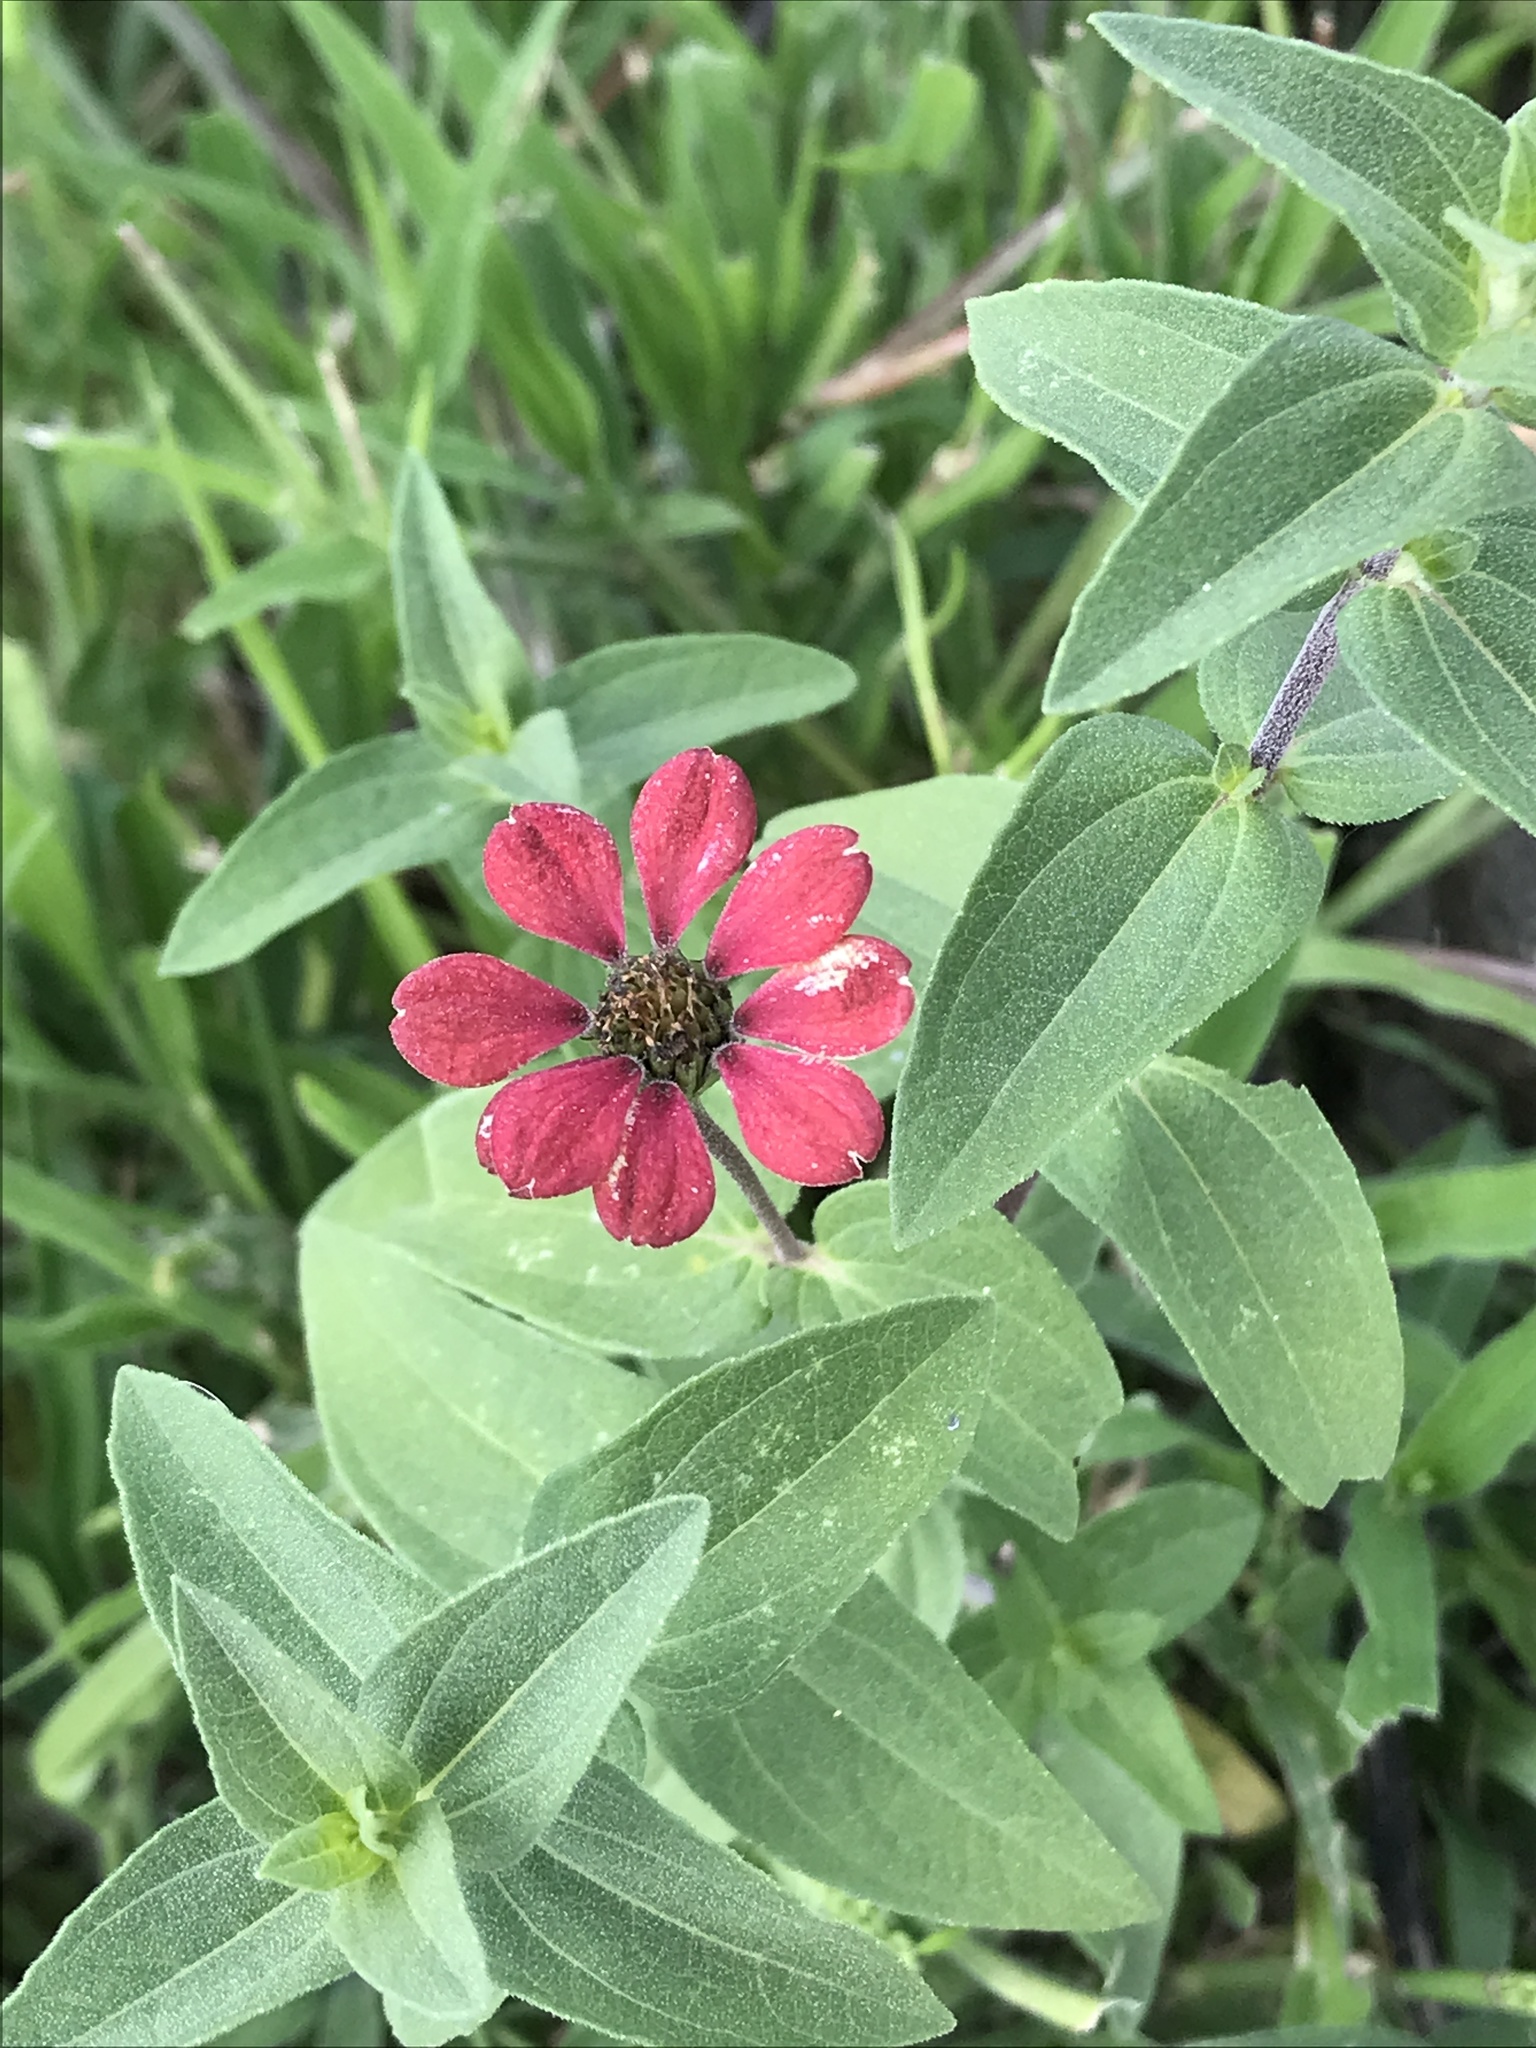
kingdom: Plantae
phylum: Tracheophyta
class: Magnoliopsida
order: Asterales
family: Asteraceae
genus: Zinnia
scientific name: Zinnia peruviana
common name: Peruvian zinnia
